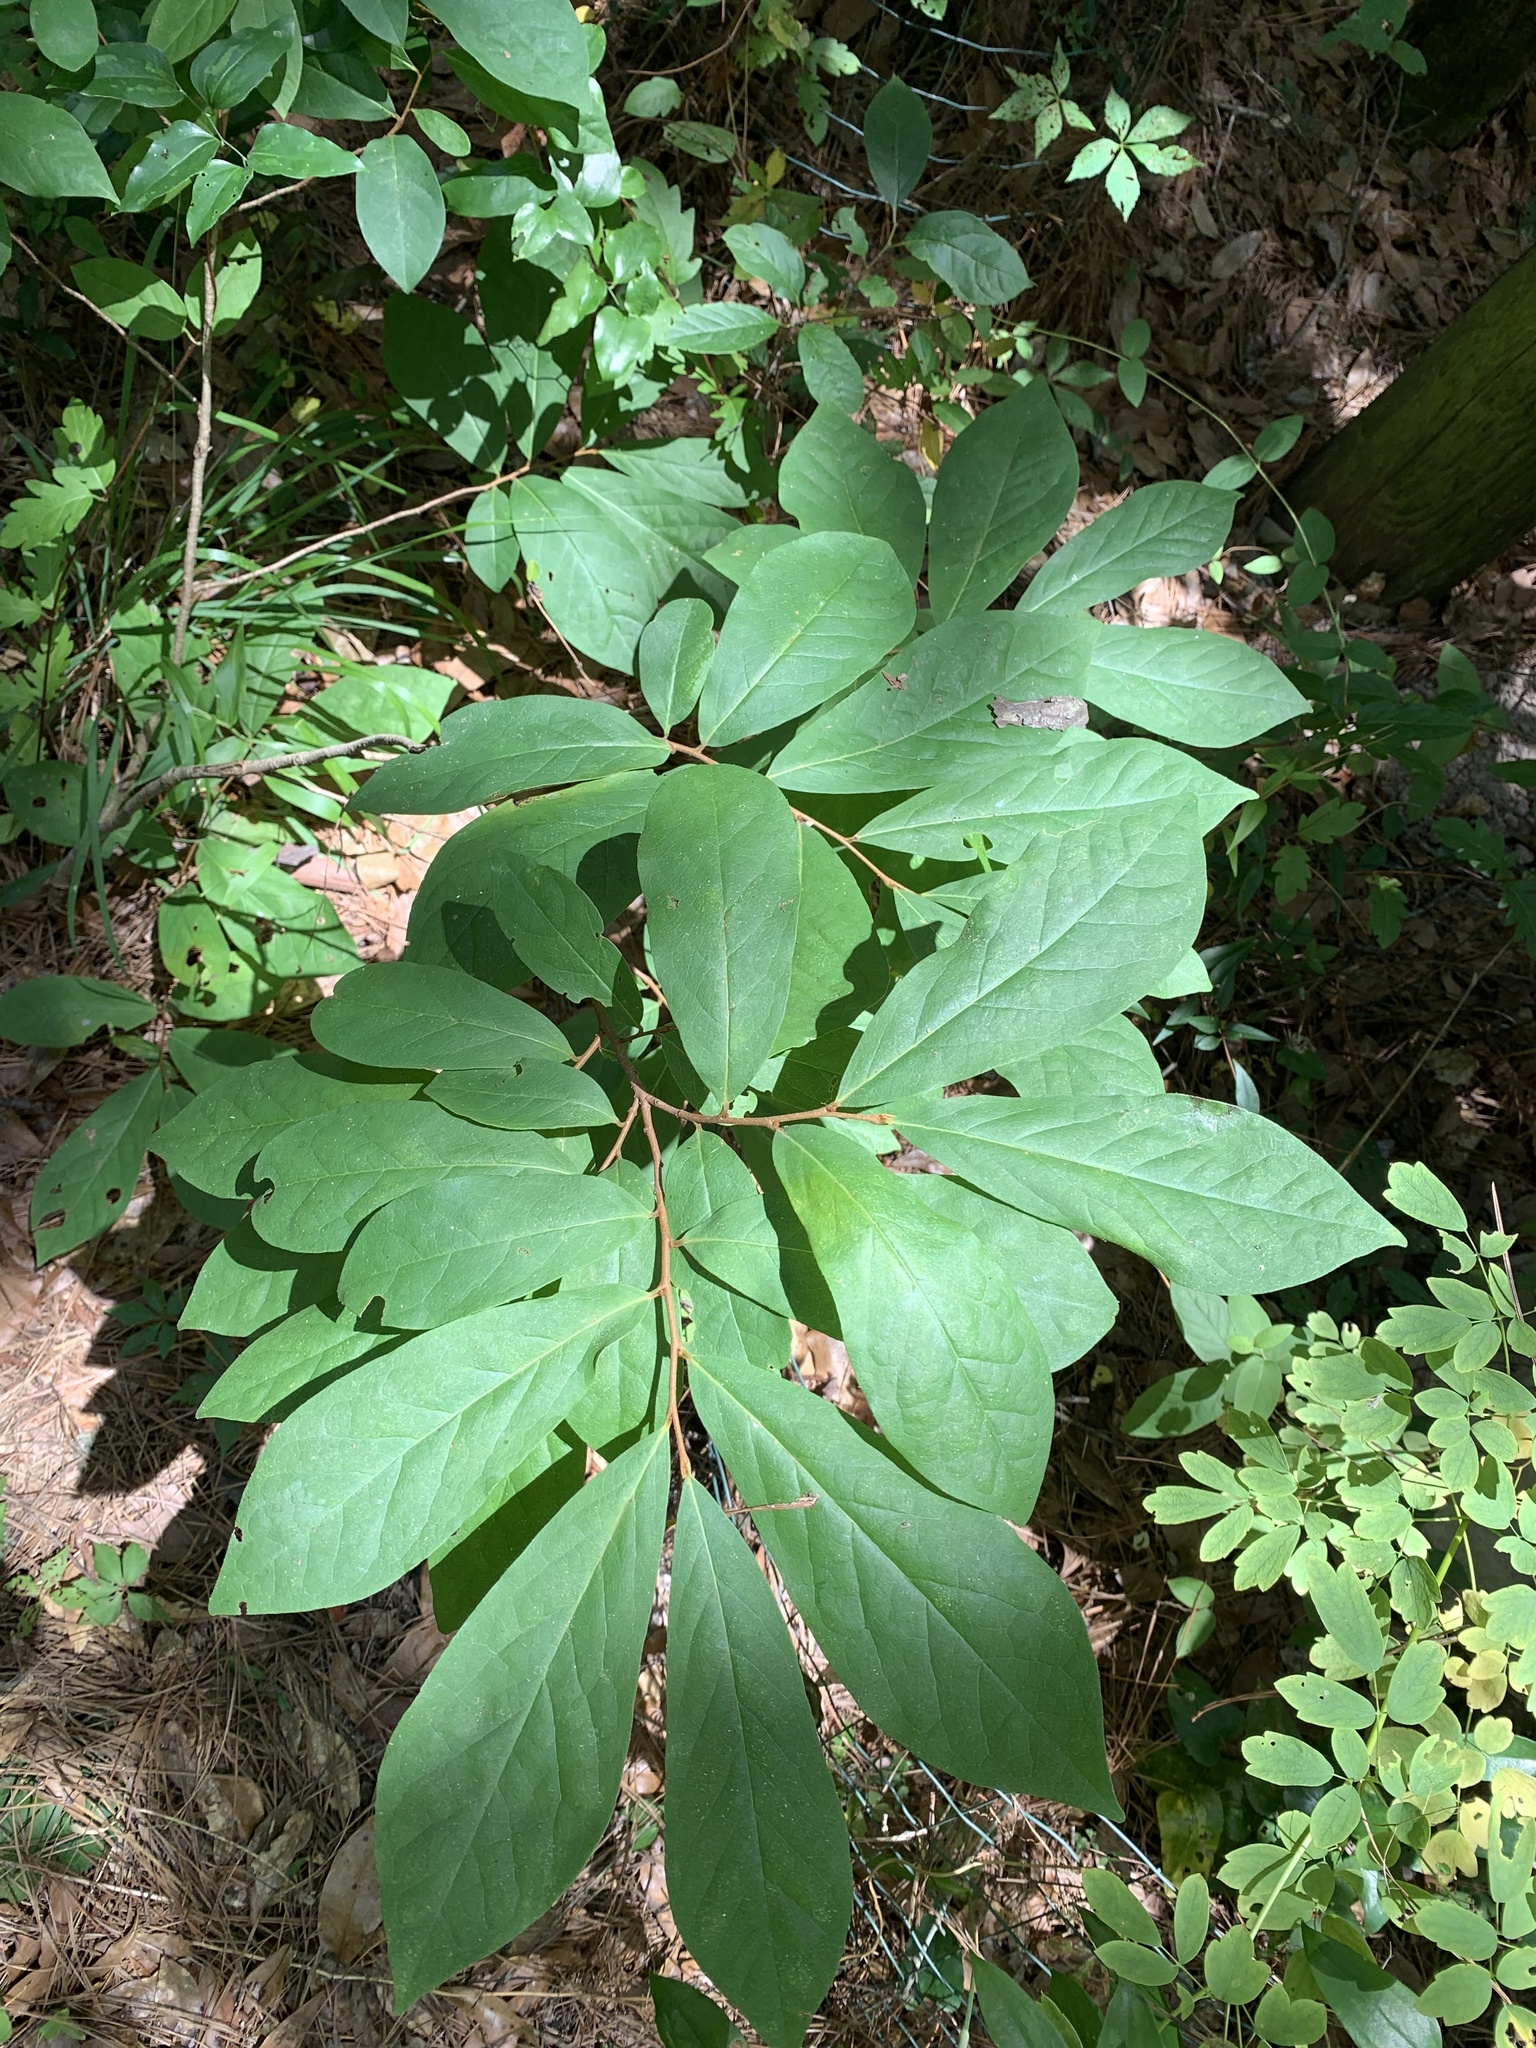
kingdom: Plantae
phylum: Tracheophyta
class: Magnoliopsida
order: Magnoliales
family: Annonaceae
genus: Asimina
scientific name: Asimina parviflora
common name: Dwarf pawpaw
